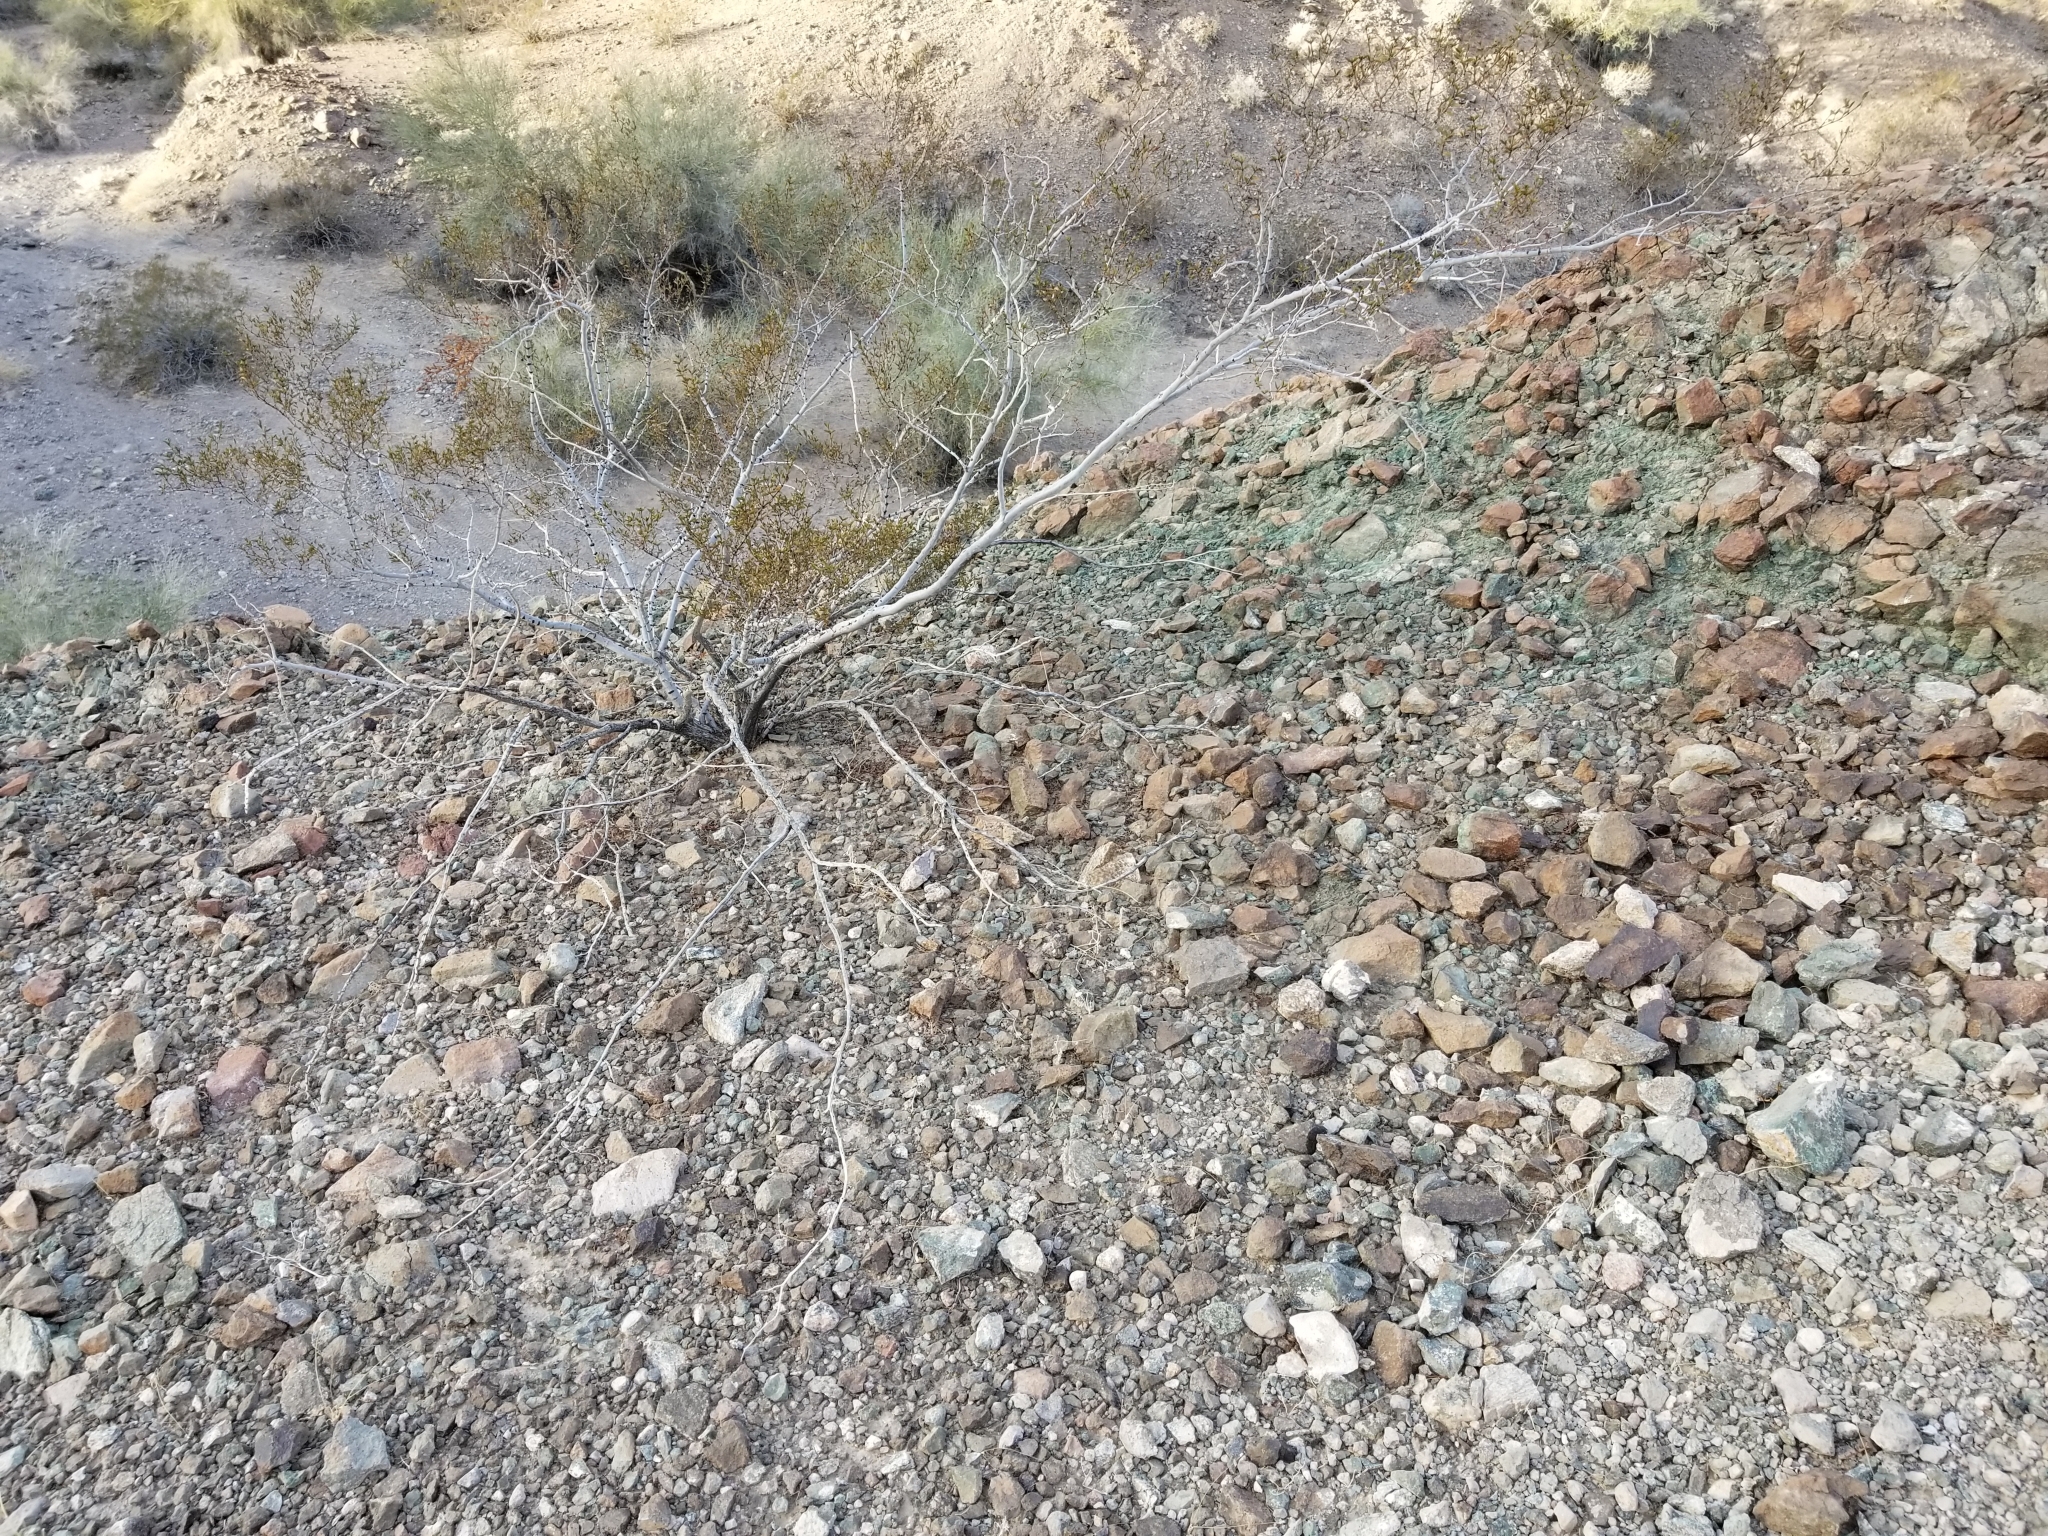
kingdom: Plantae
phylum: Tracheophyta
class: Magnoliopsida
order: Zygophyllales
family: Zygophyllaceae
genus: Larrea
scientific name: Larrea tridentata
